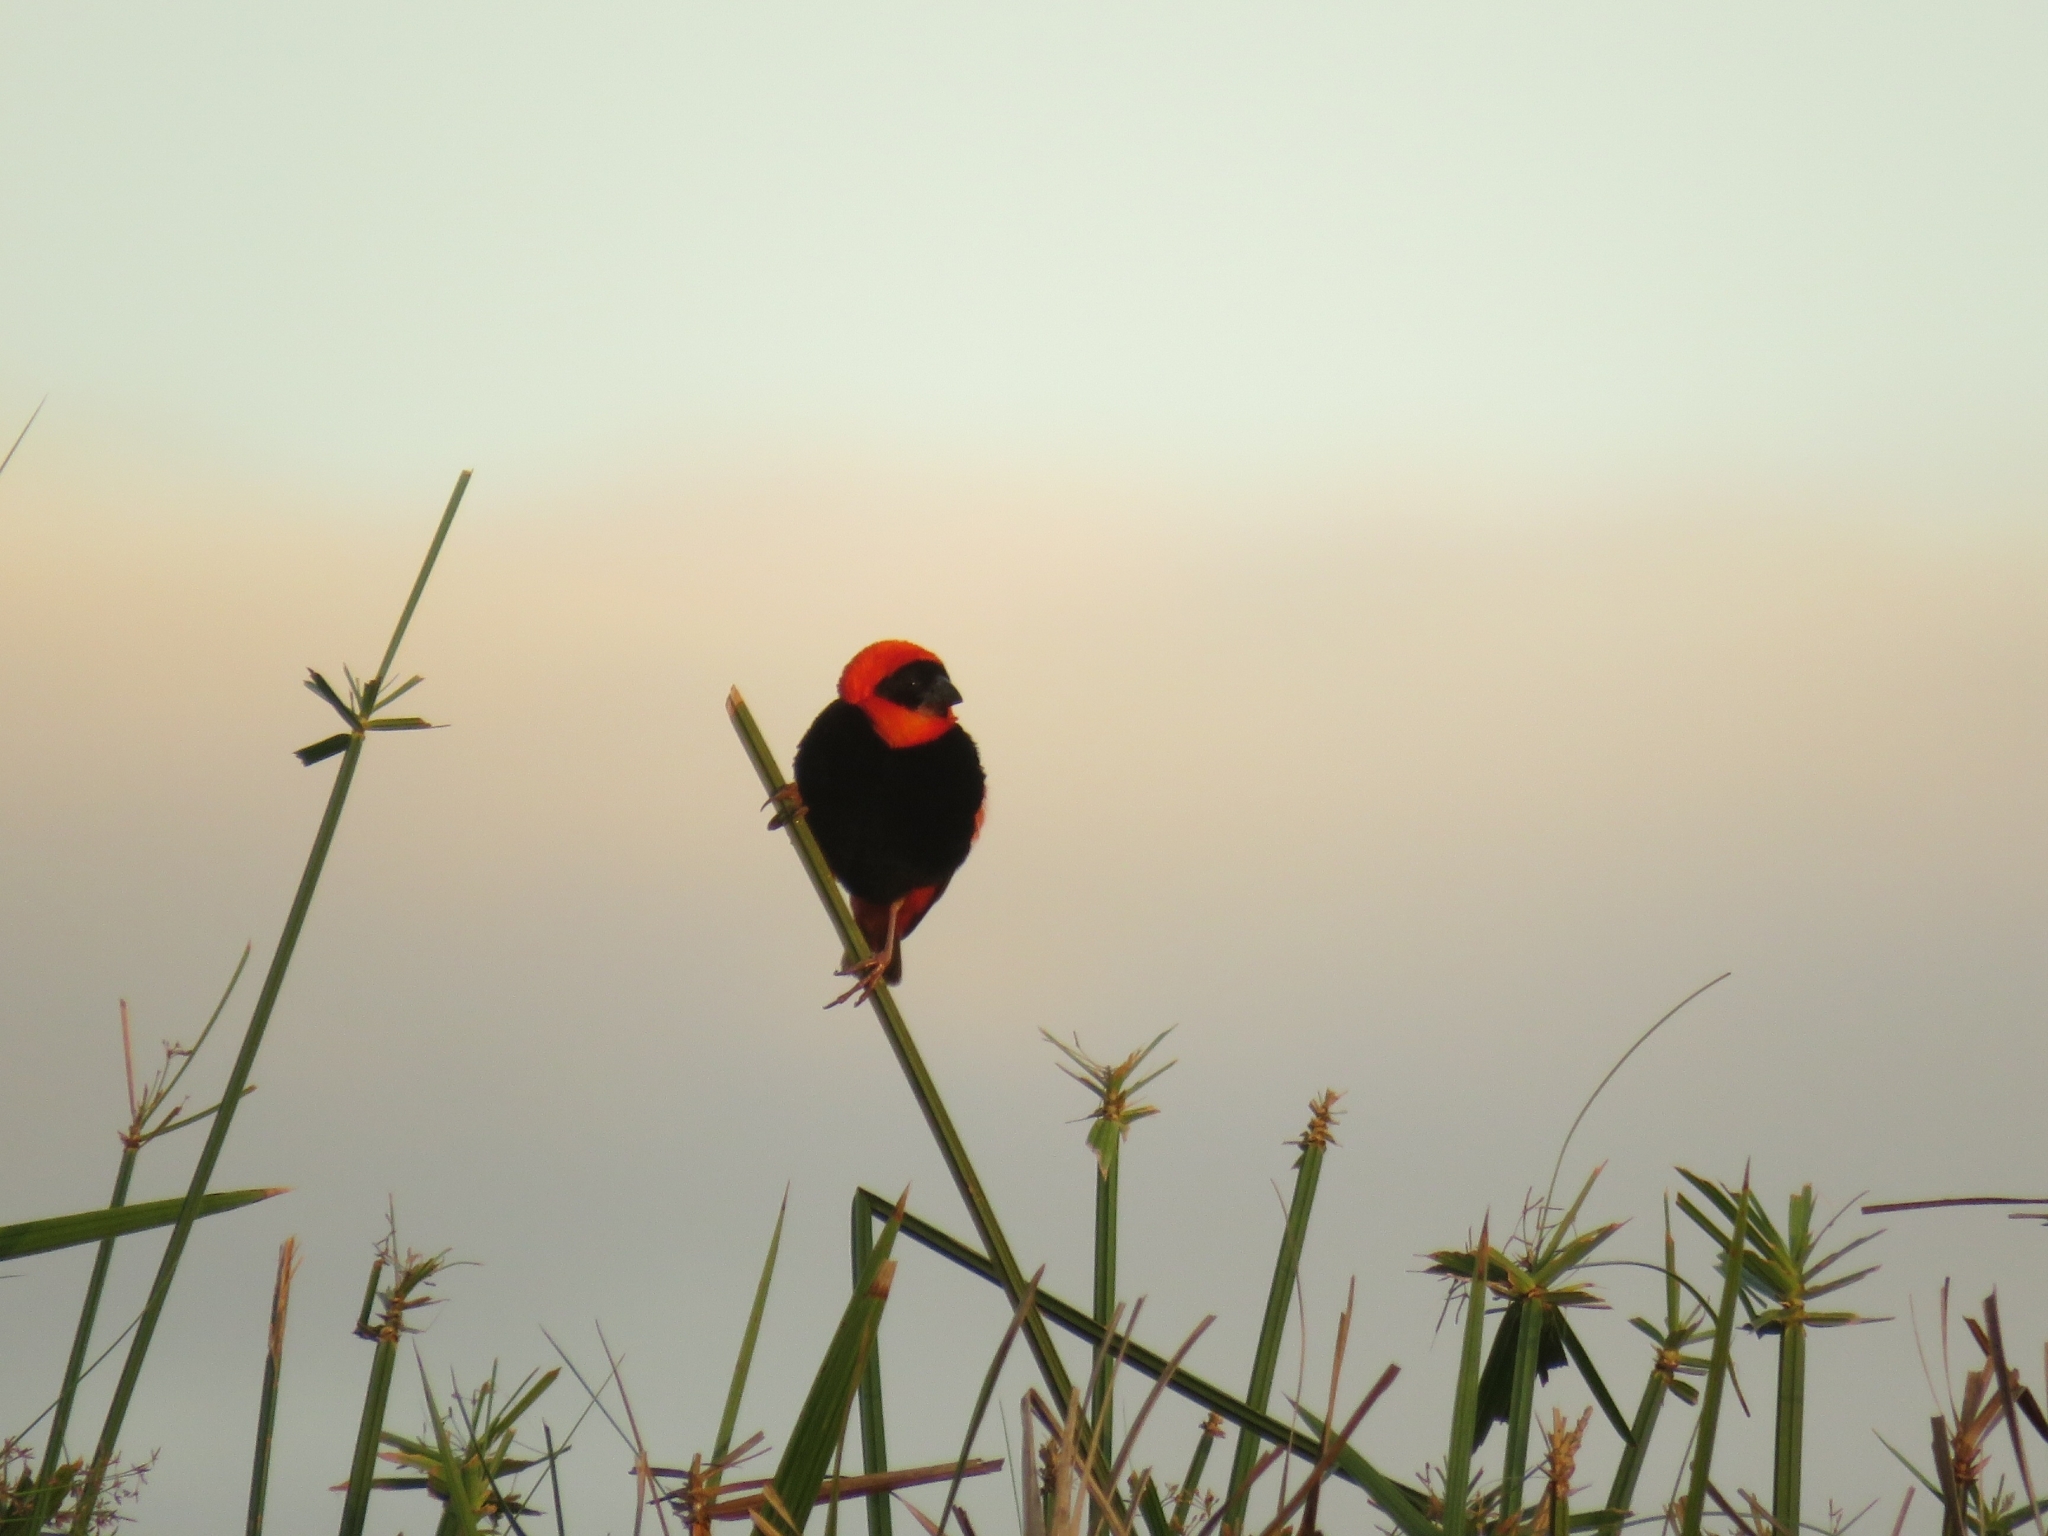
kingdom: Animalia
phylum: Chordata
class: Aves
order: Passeriformes
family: Ploceidae
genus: Euplectes
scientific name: Euplectes orix
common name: Southern red bishop
